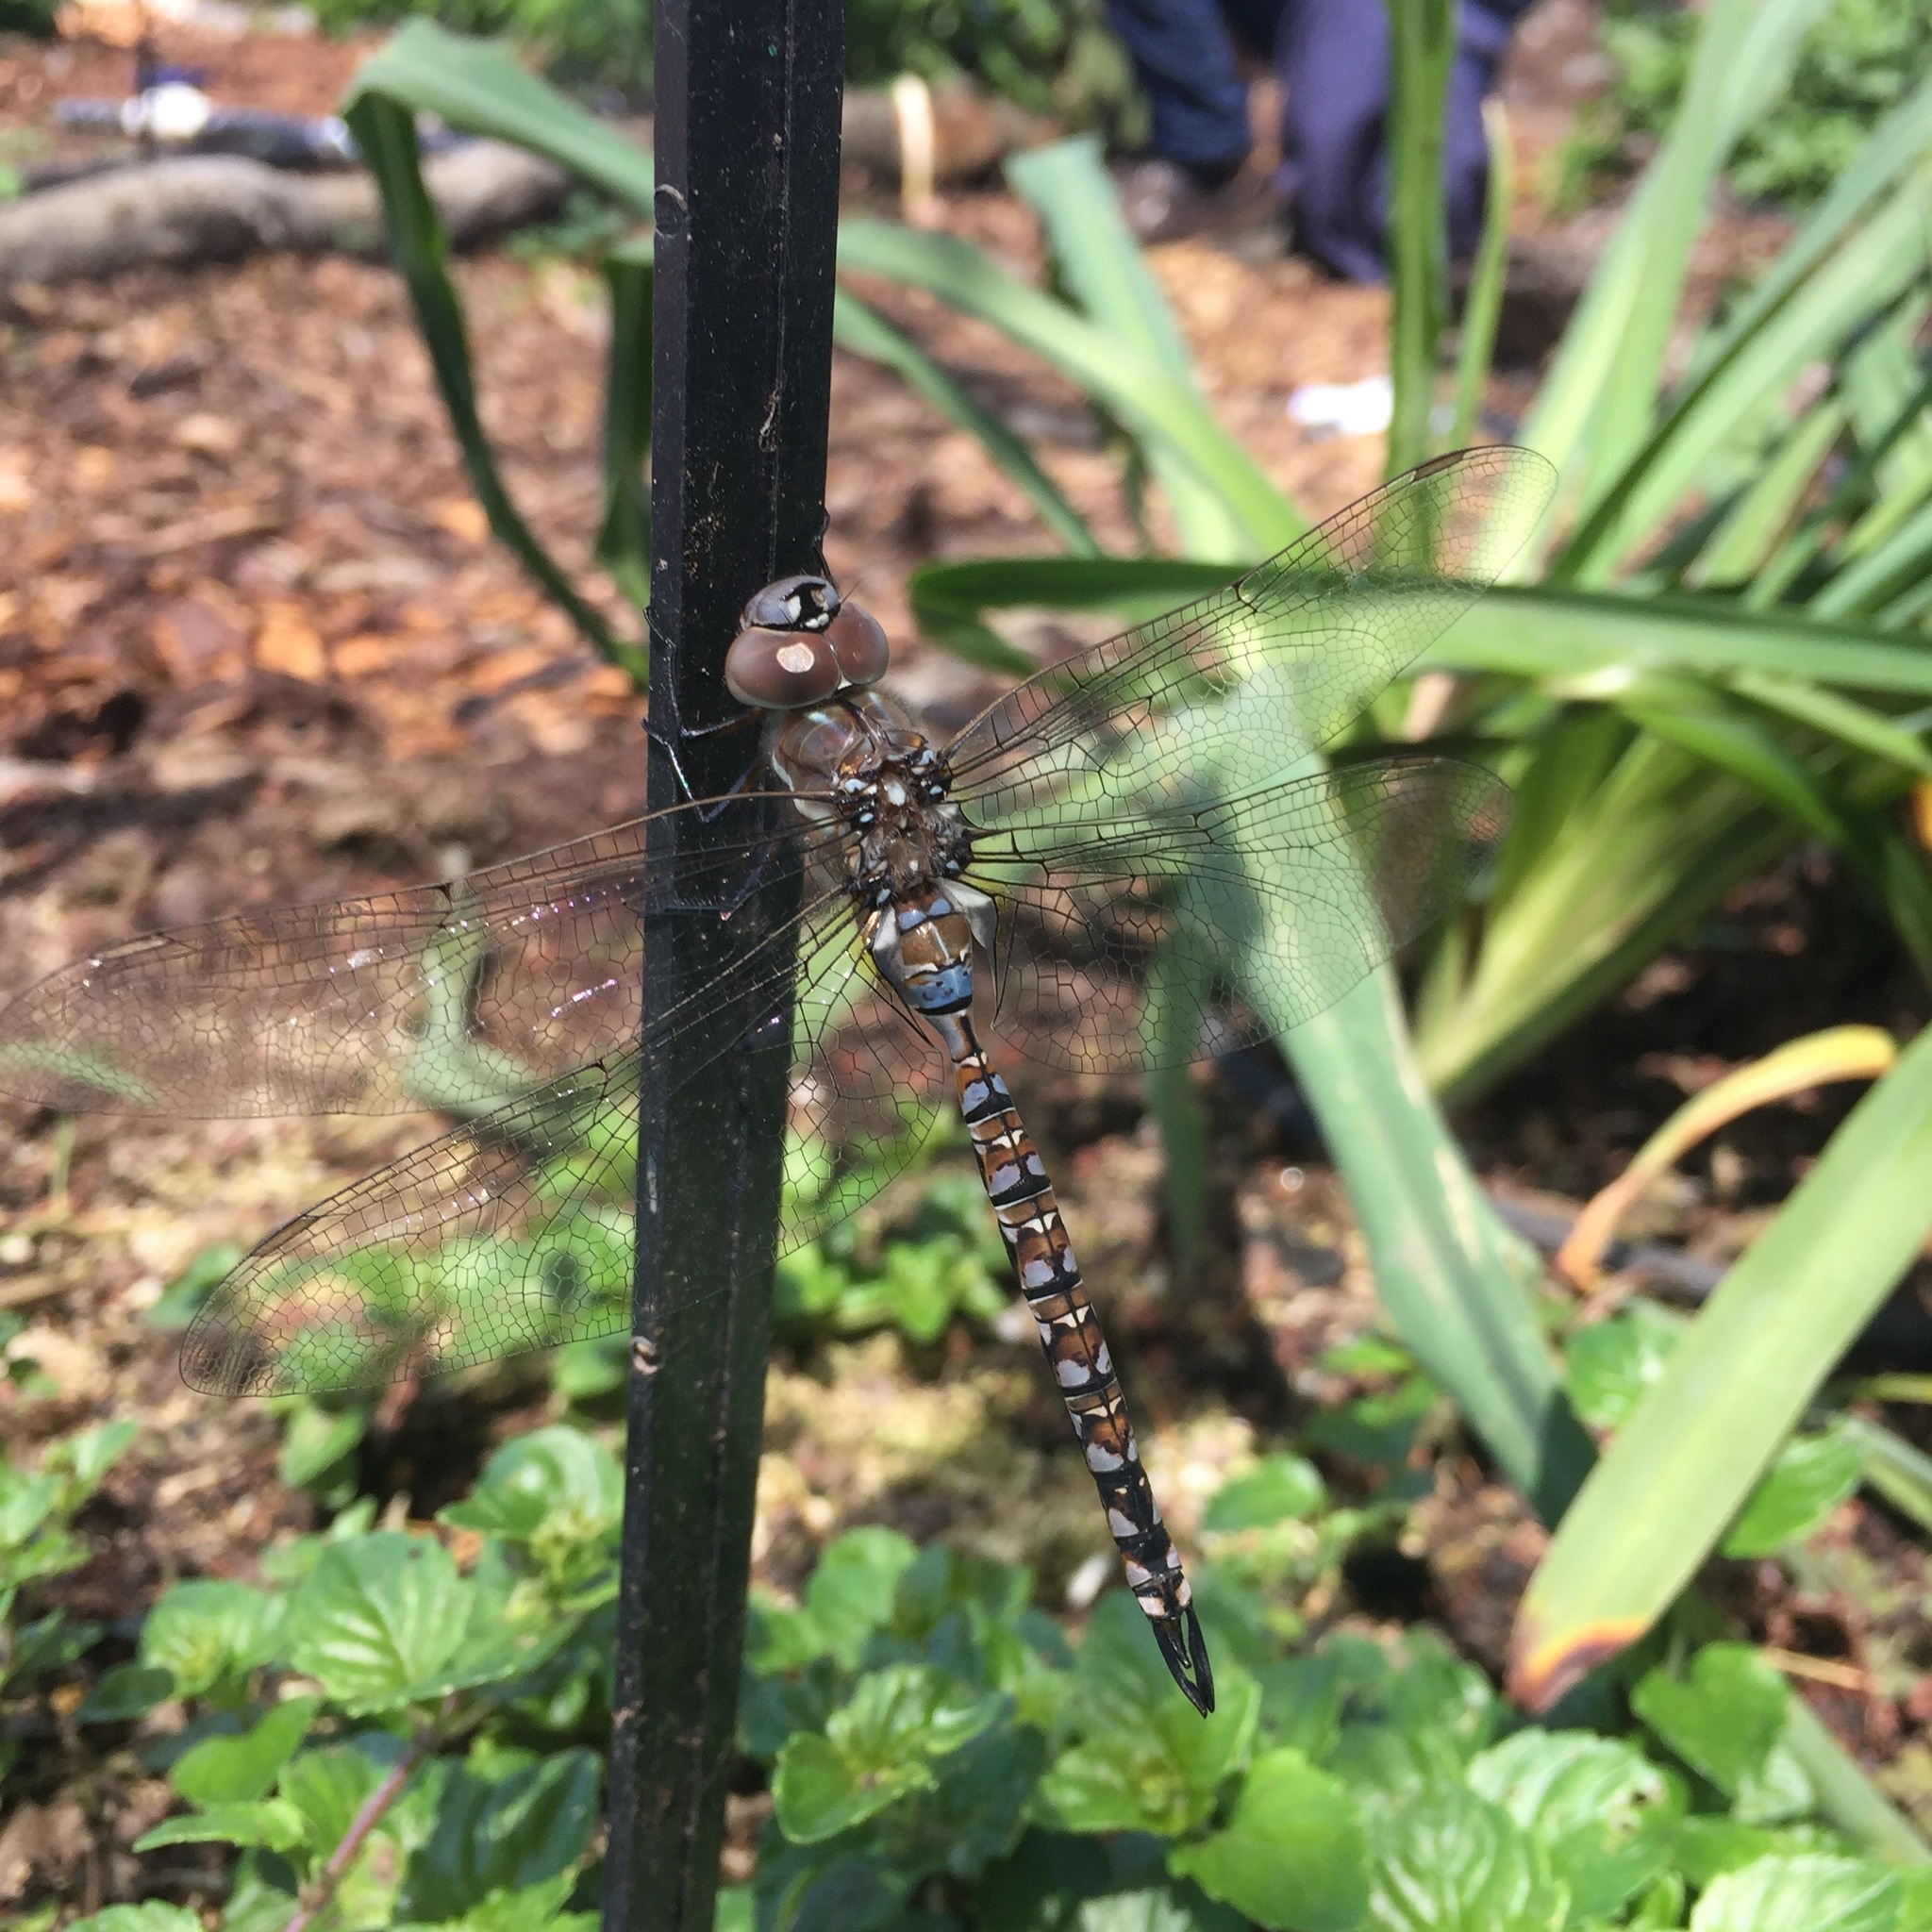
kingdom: Animalia
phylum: Arthropoda
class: Insecta
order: Odonata
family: Aeshnidae
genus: Rhionaeschna
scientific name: Rhionaeschna multicolor
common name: Blue-eyed darner
